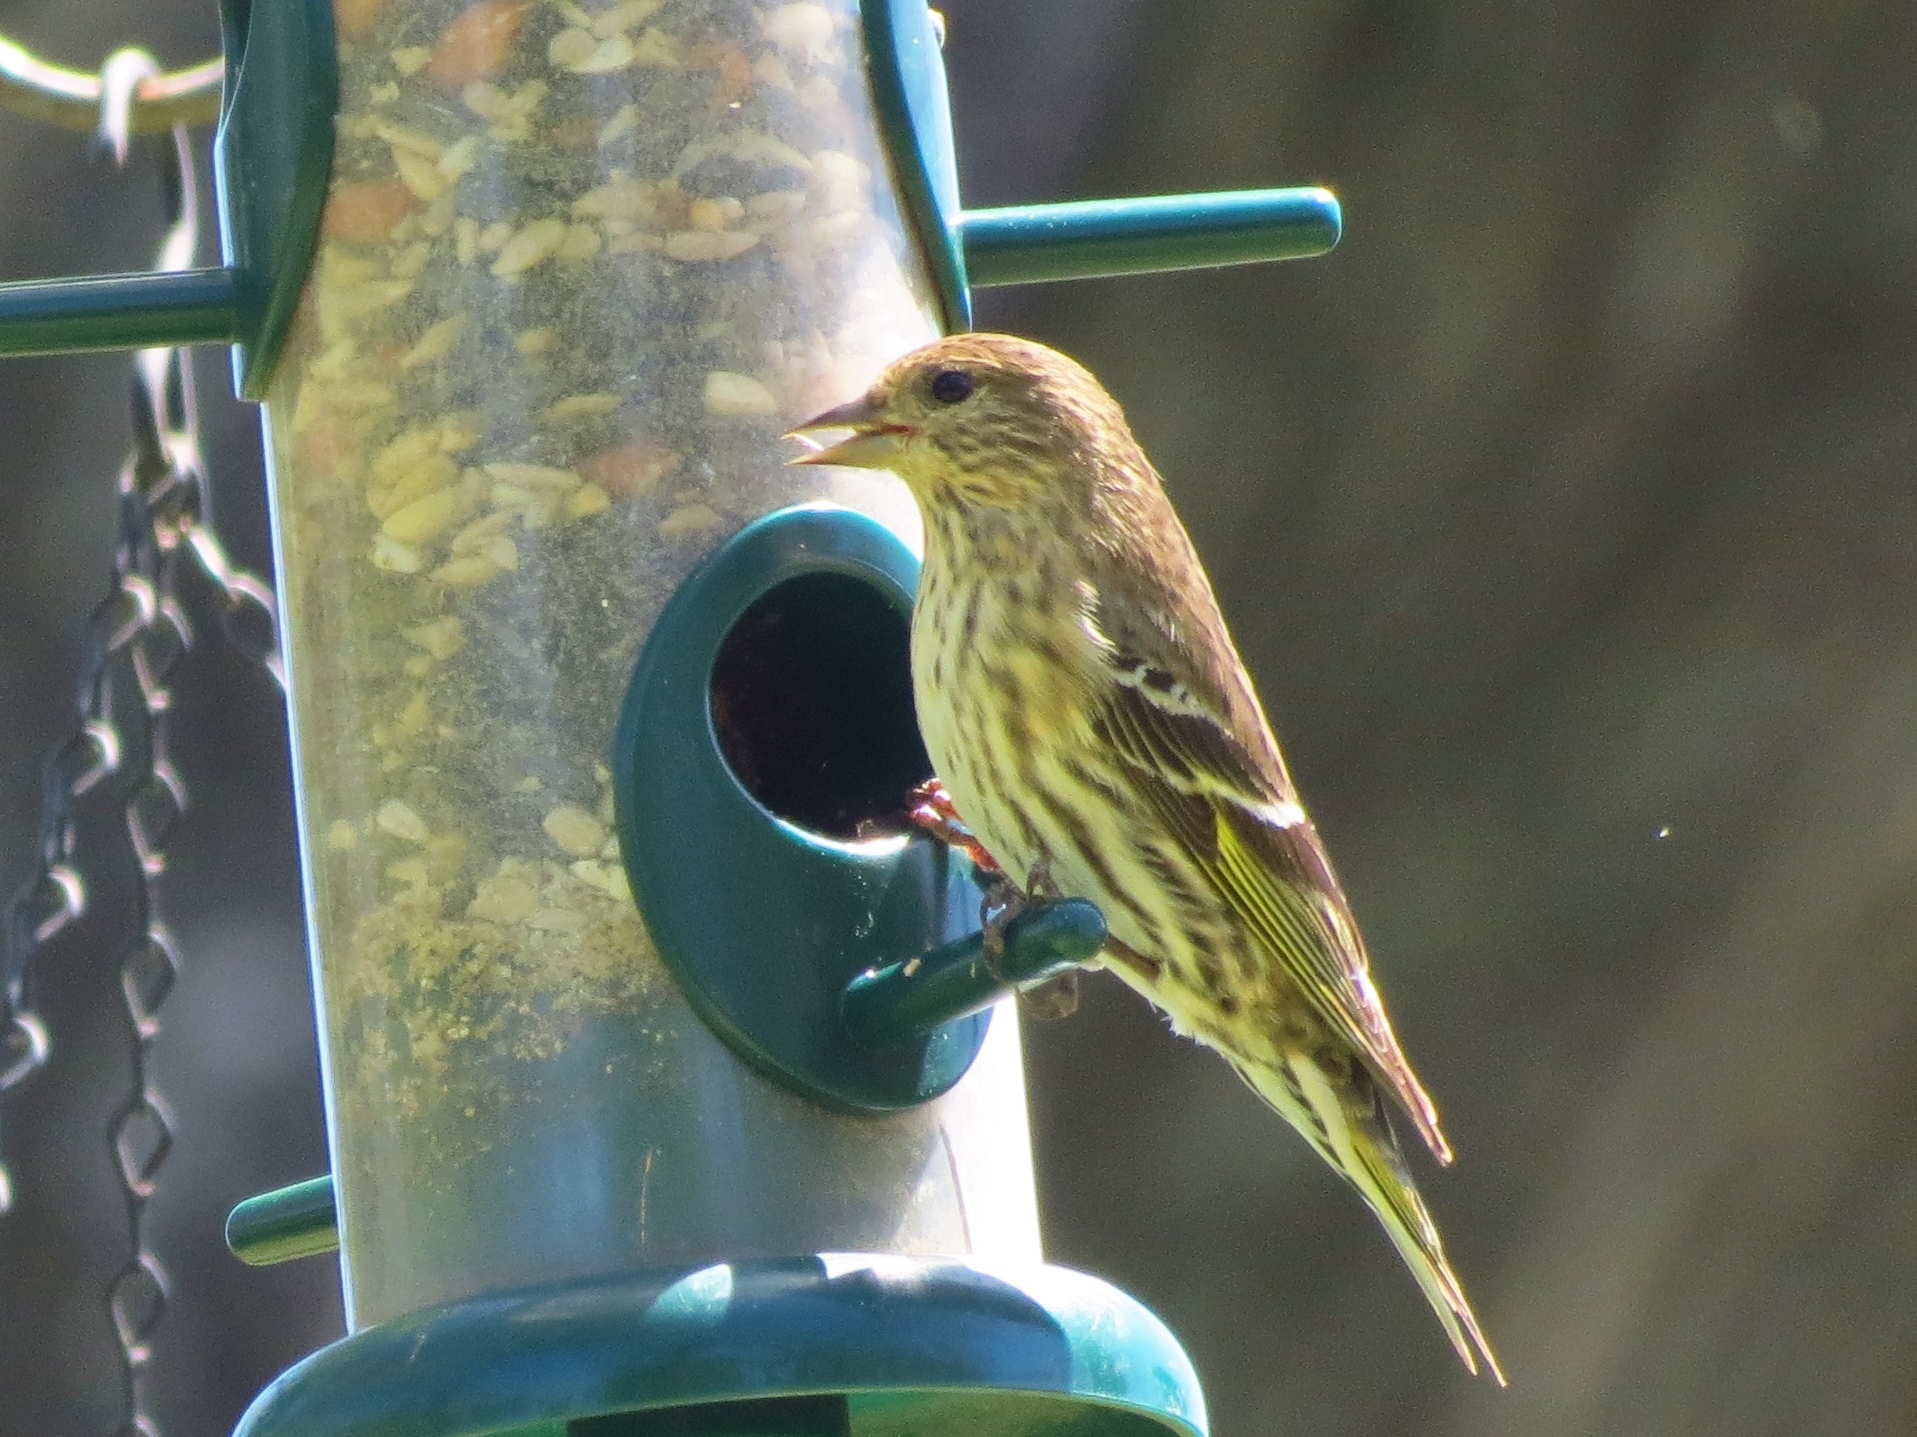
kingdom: Animalia
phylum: Chordata
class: Aves
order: Passeriformes
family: Fringillidae
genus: Spinus
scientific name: Spinus pinus
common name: Pine siskin
